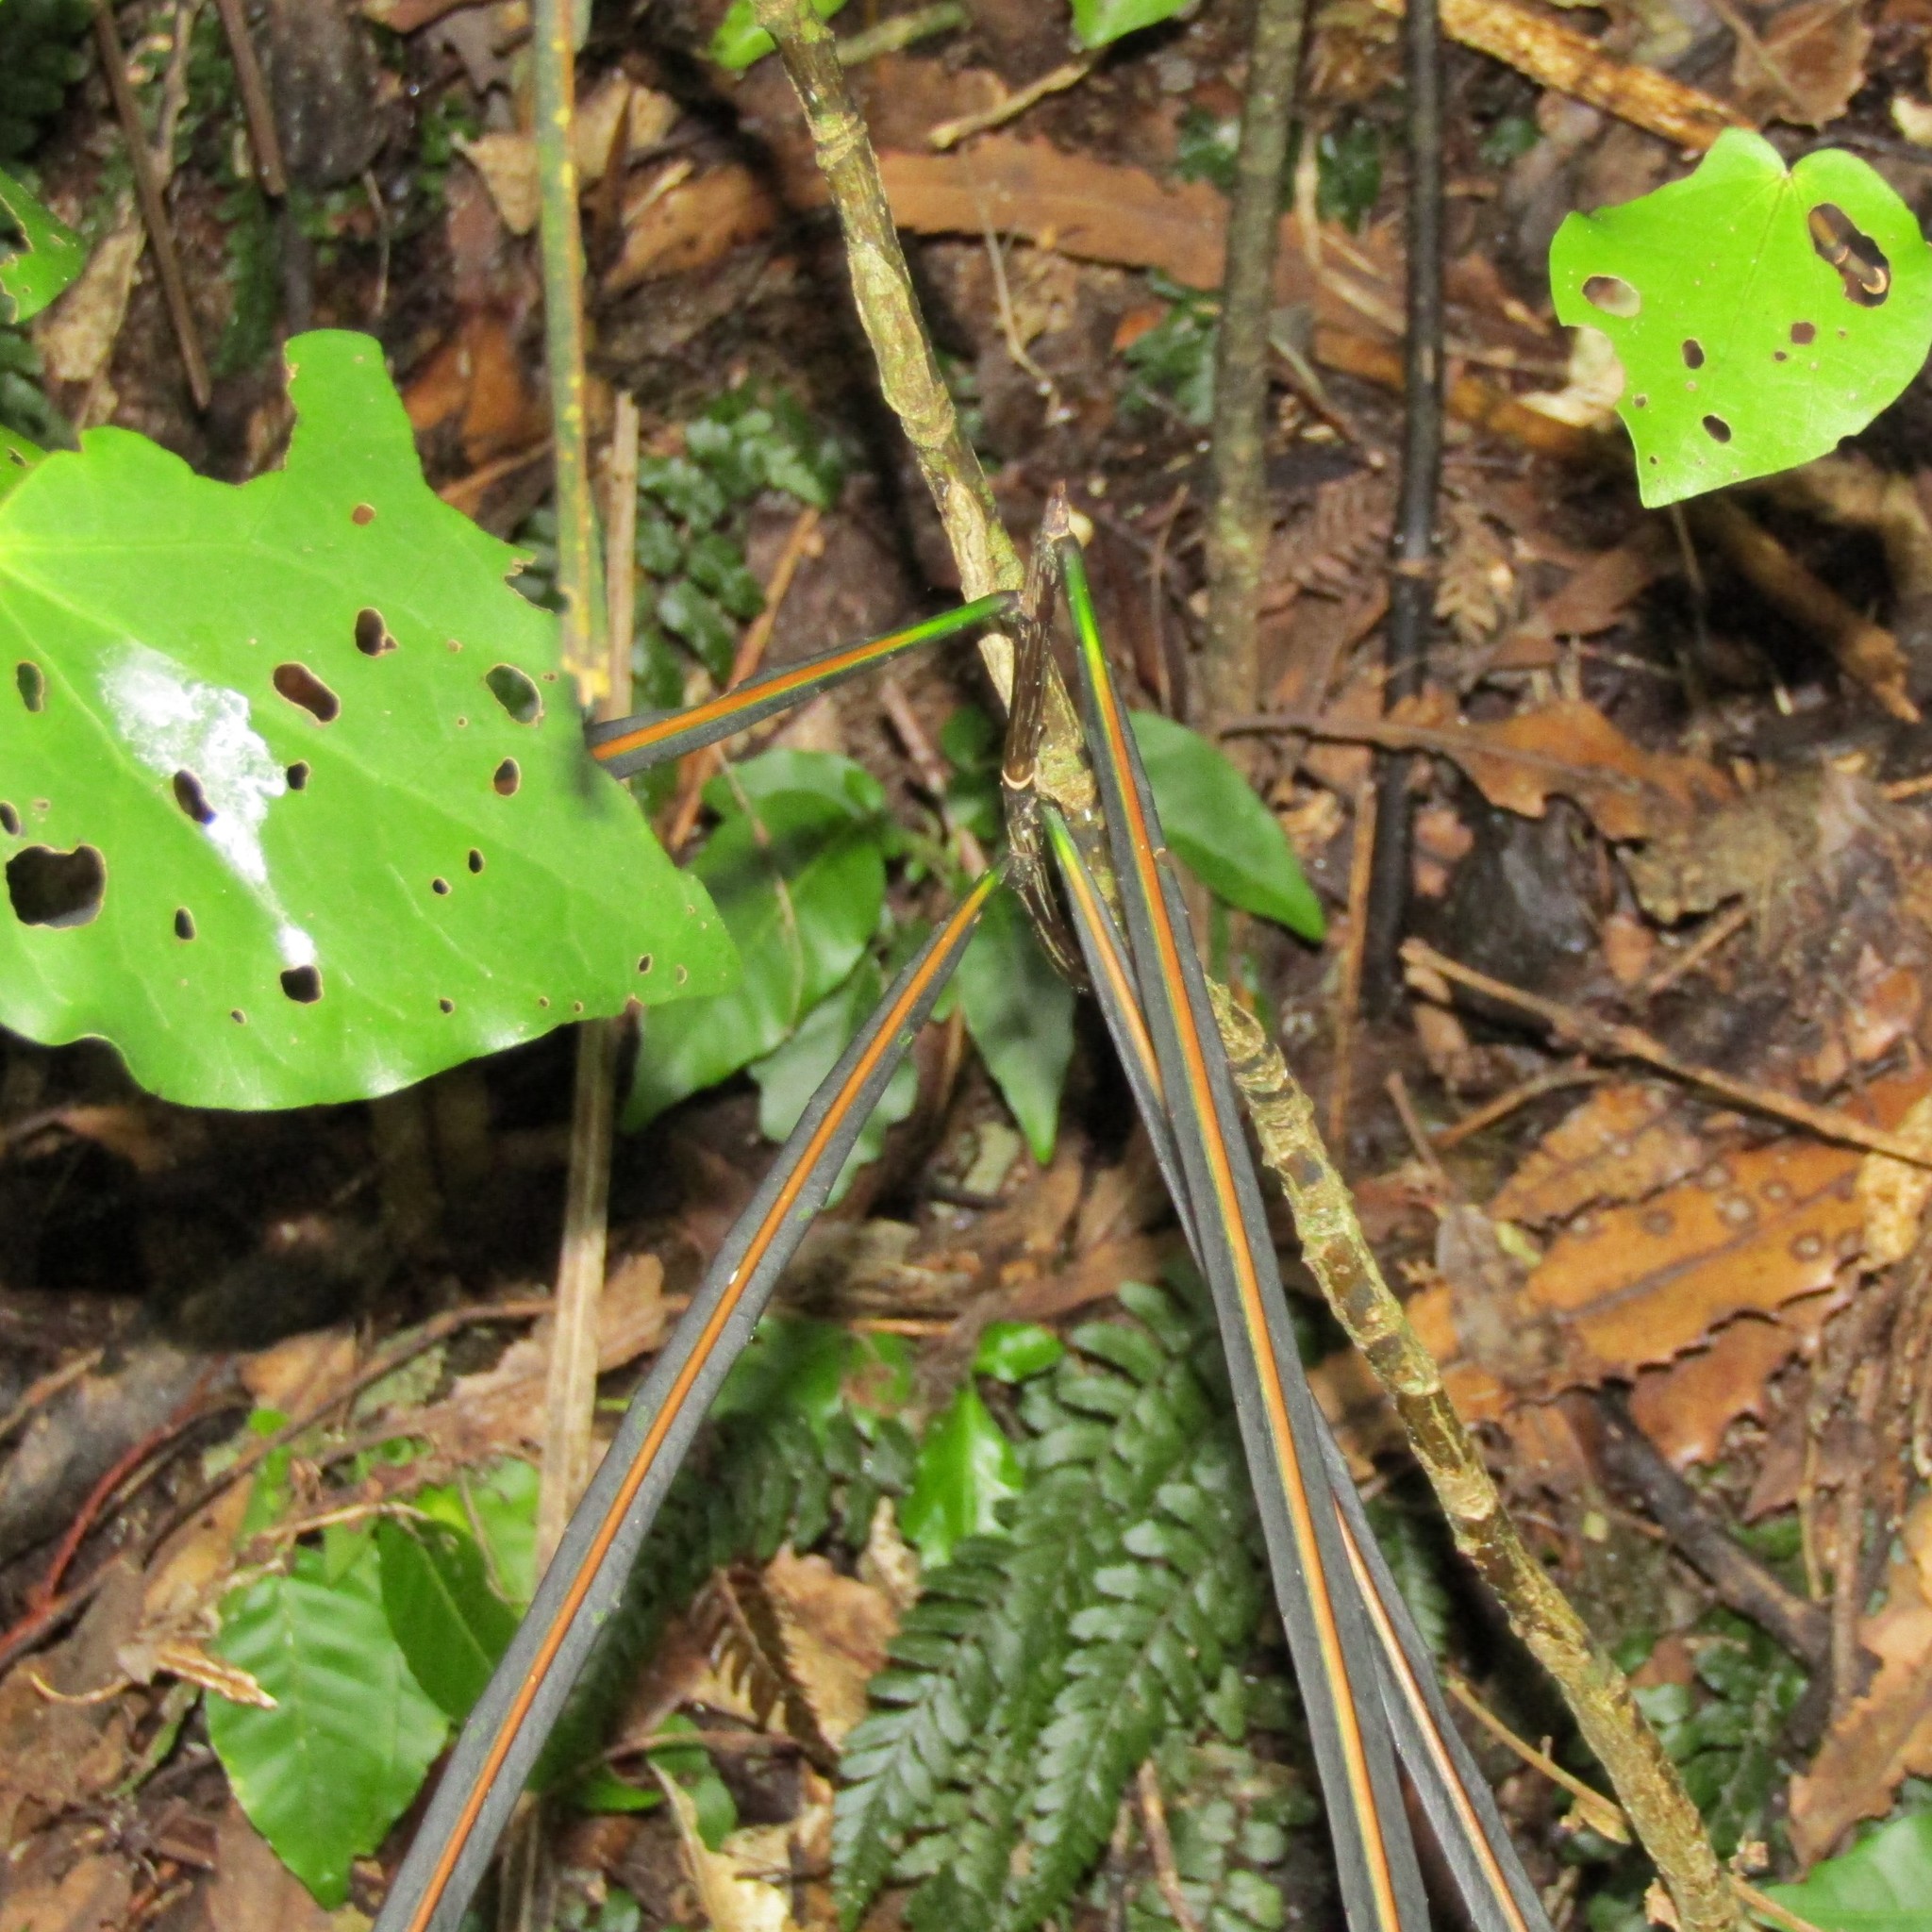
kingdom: Plantae
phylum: Tracheophyta
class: Magnoliopsida
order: Apiales
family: Araliaceae
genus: Pseudopanax
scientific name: Pseudopanax crassifolius
